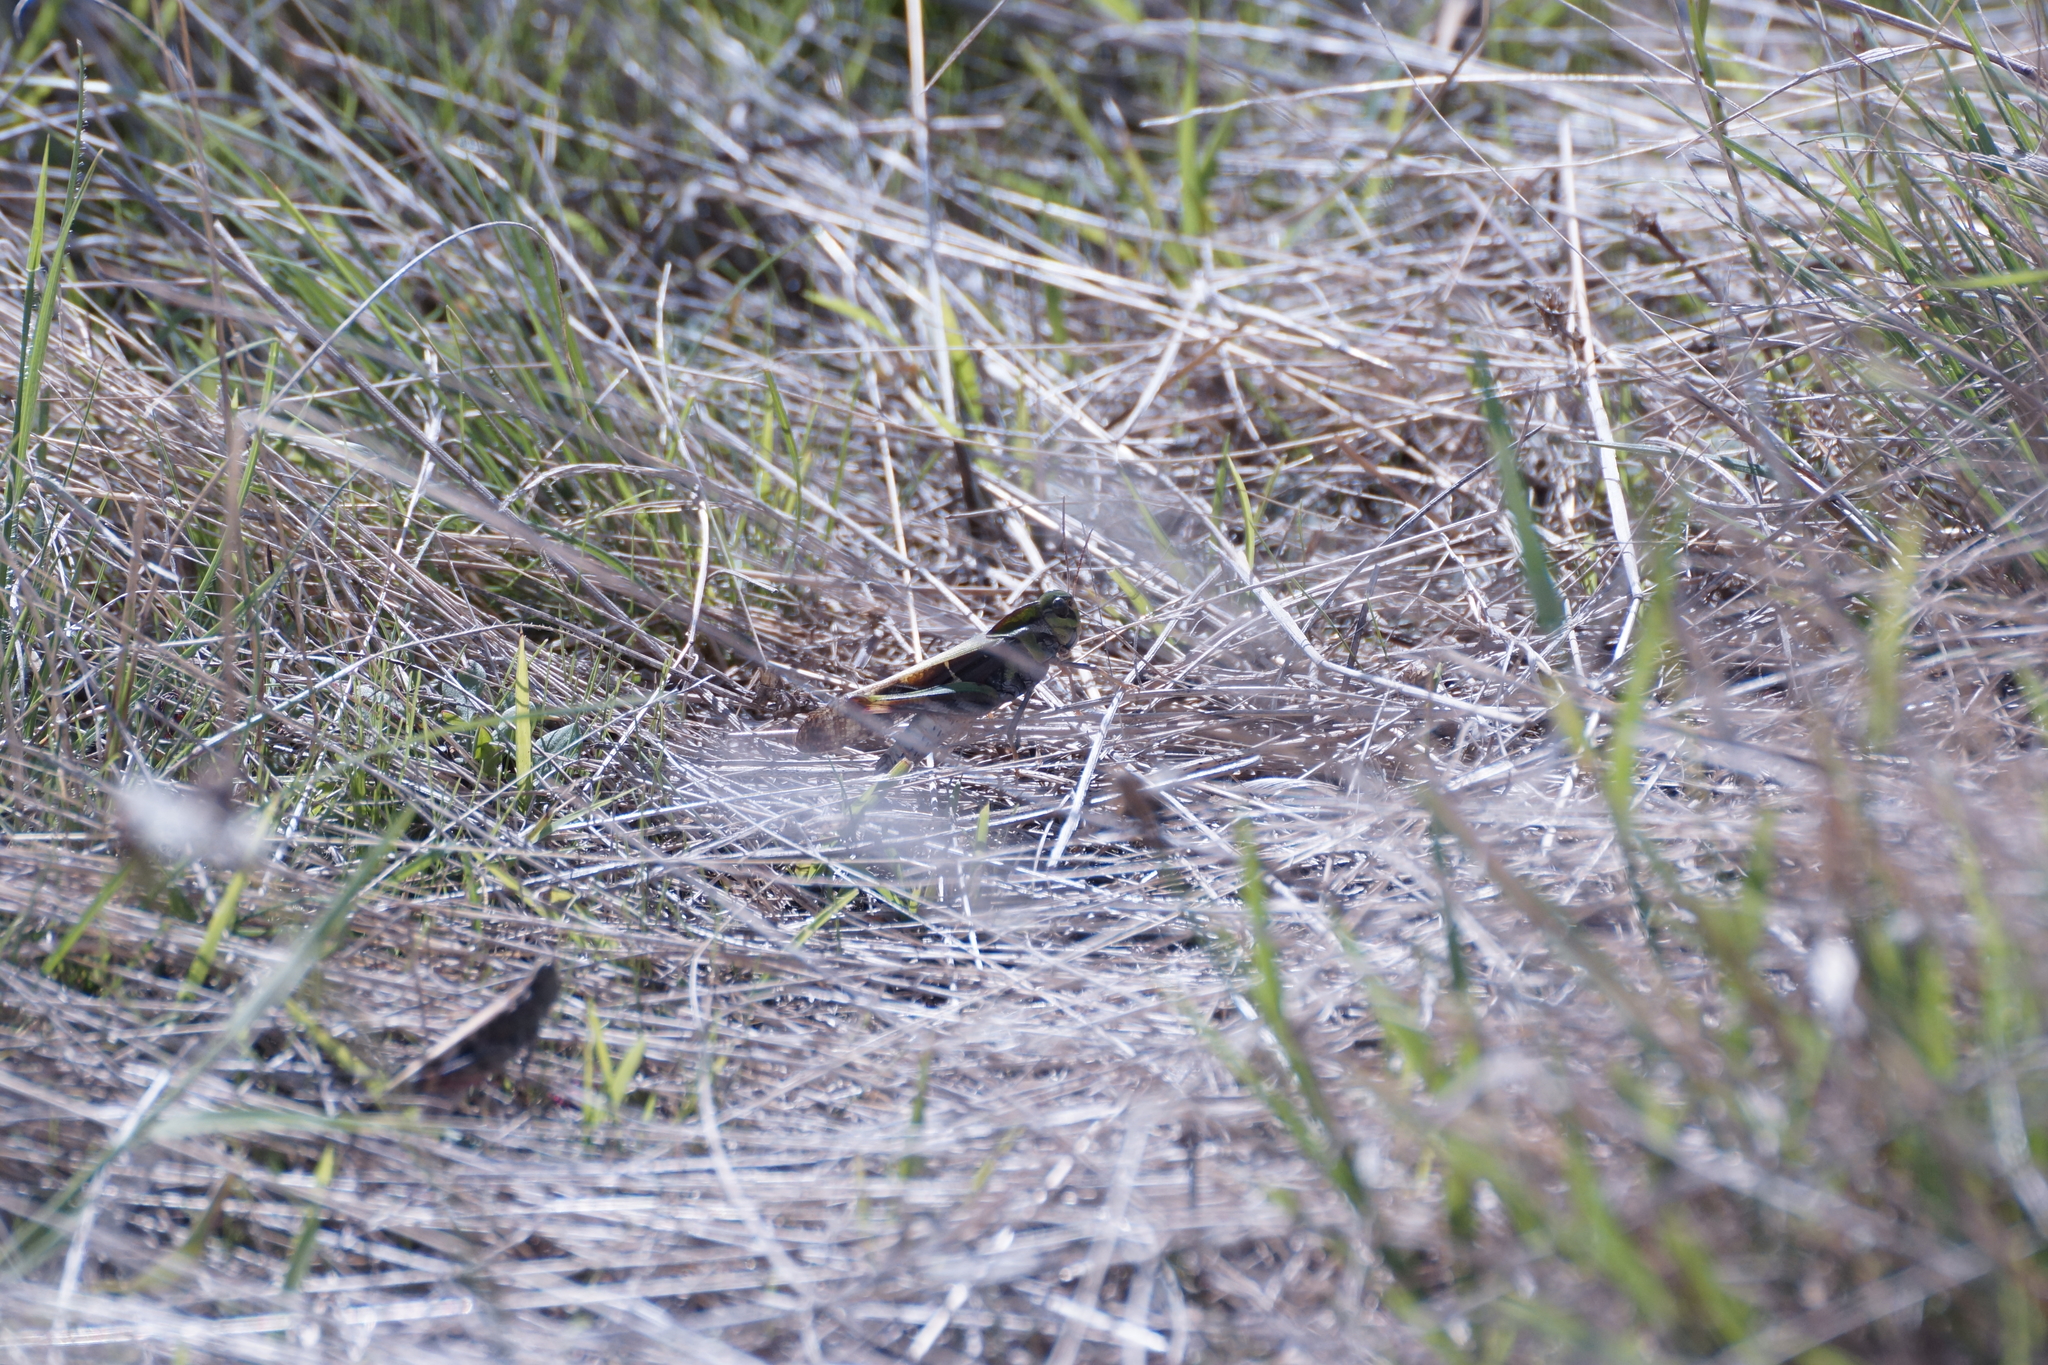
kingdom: Animalia
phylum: Arthropoda
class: Insecta
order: Orthoptera
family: Acrididae
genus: Gastrimargus
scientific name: Gastrimargus musicus
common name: Yellow-winged locust
